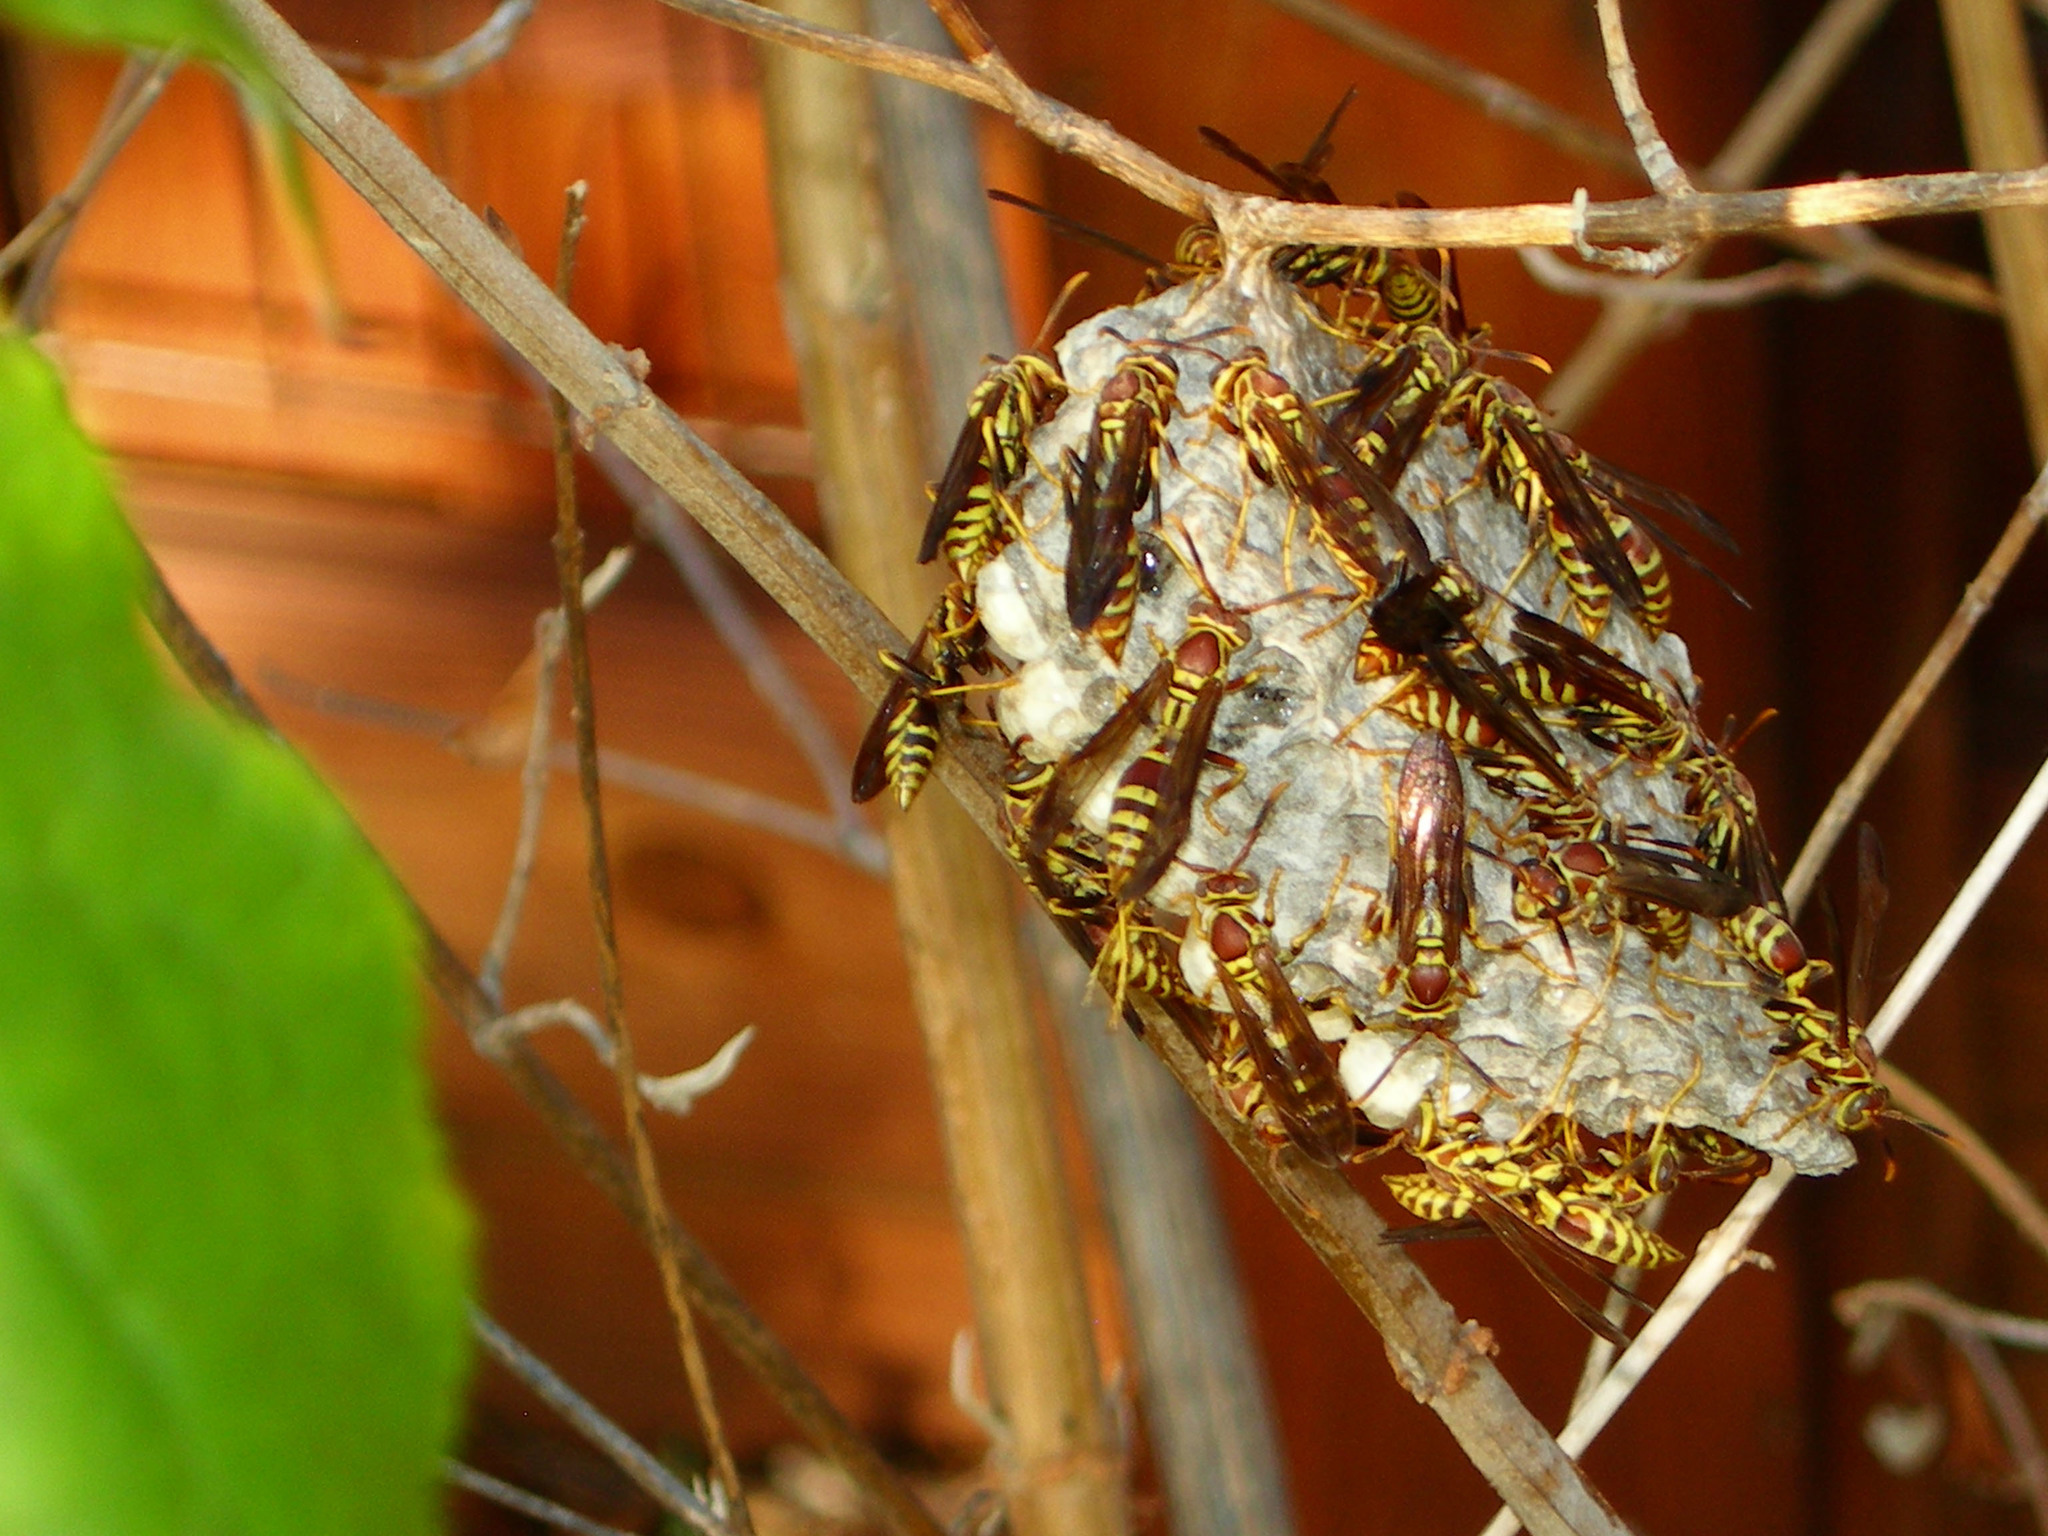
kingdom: Animalia
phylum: Arthropoda
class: Insecta
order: Hymenoptera
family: Eumenidae
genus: Polistes
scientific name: Polistes exclamans
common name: Paper wasp
